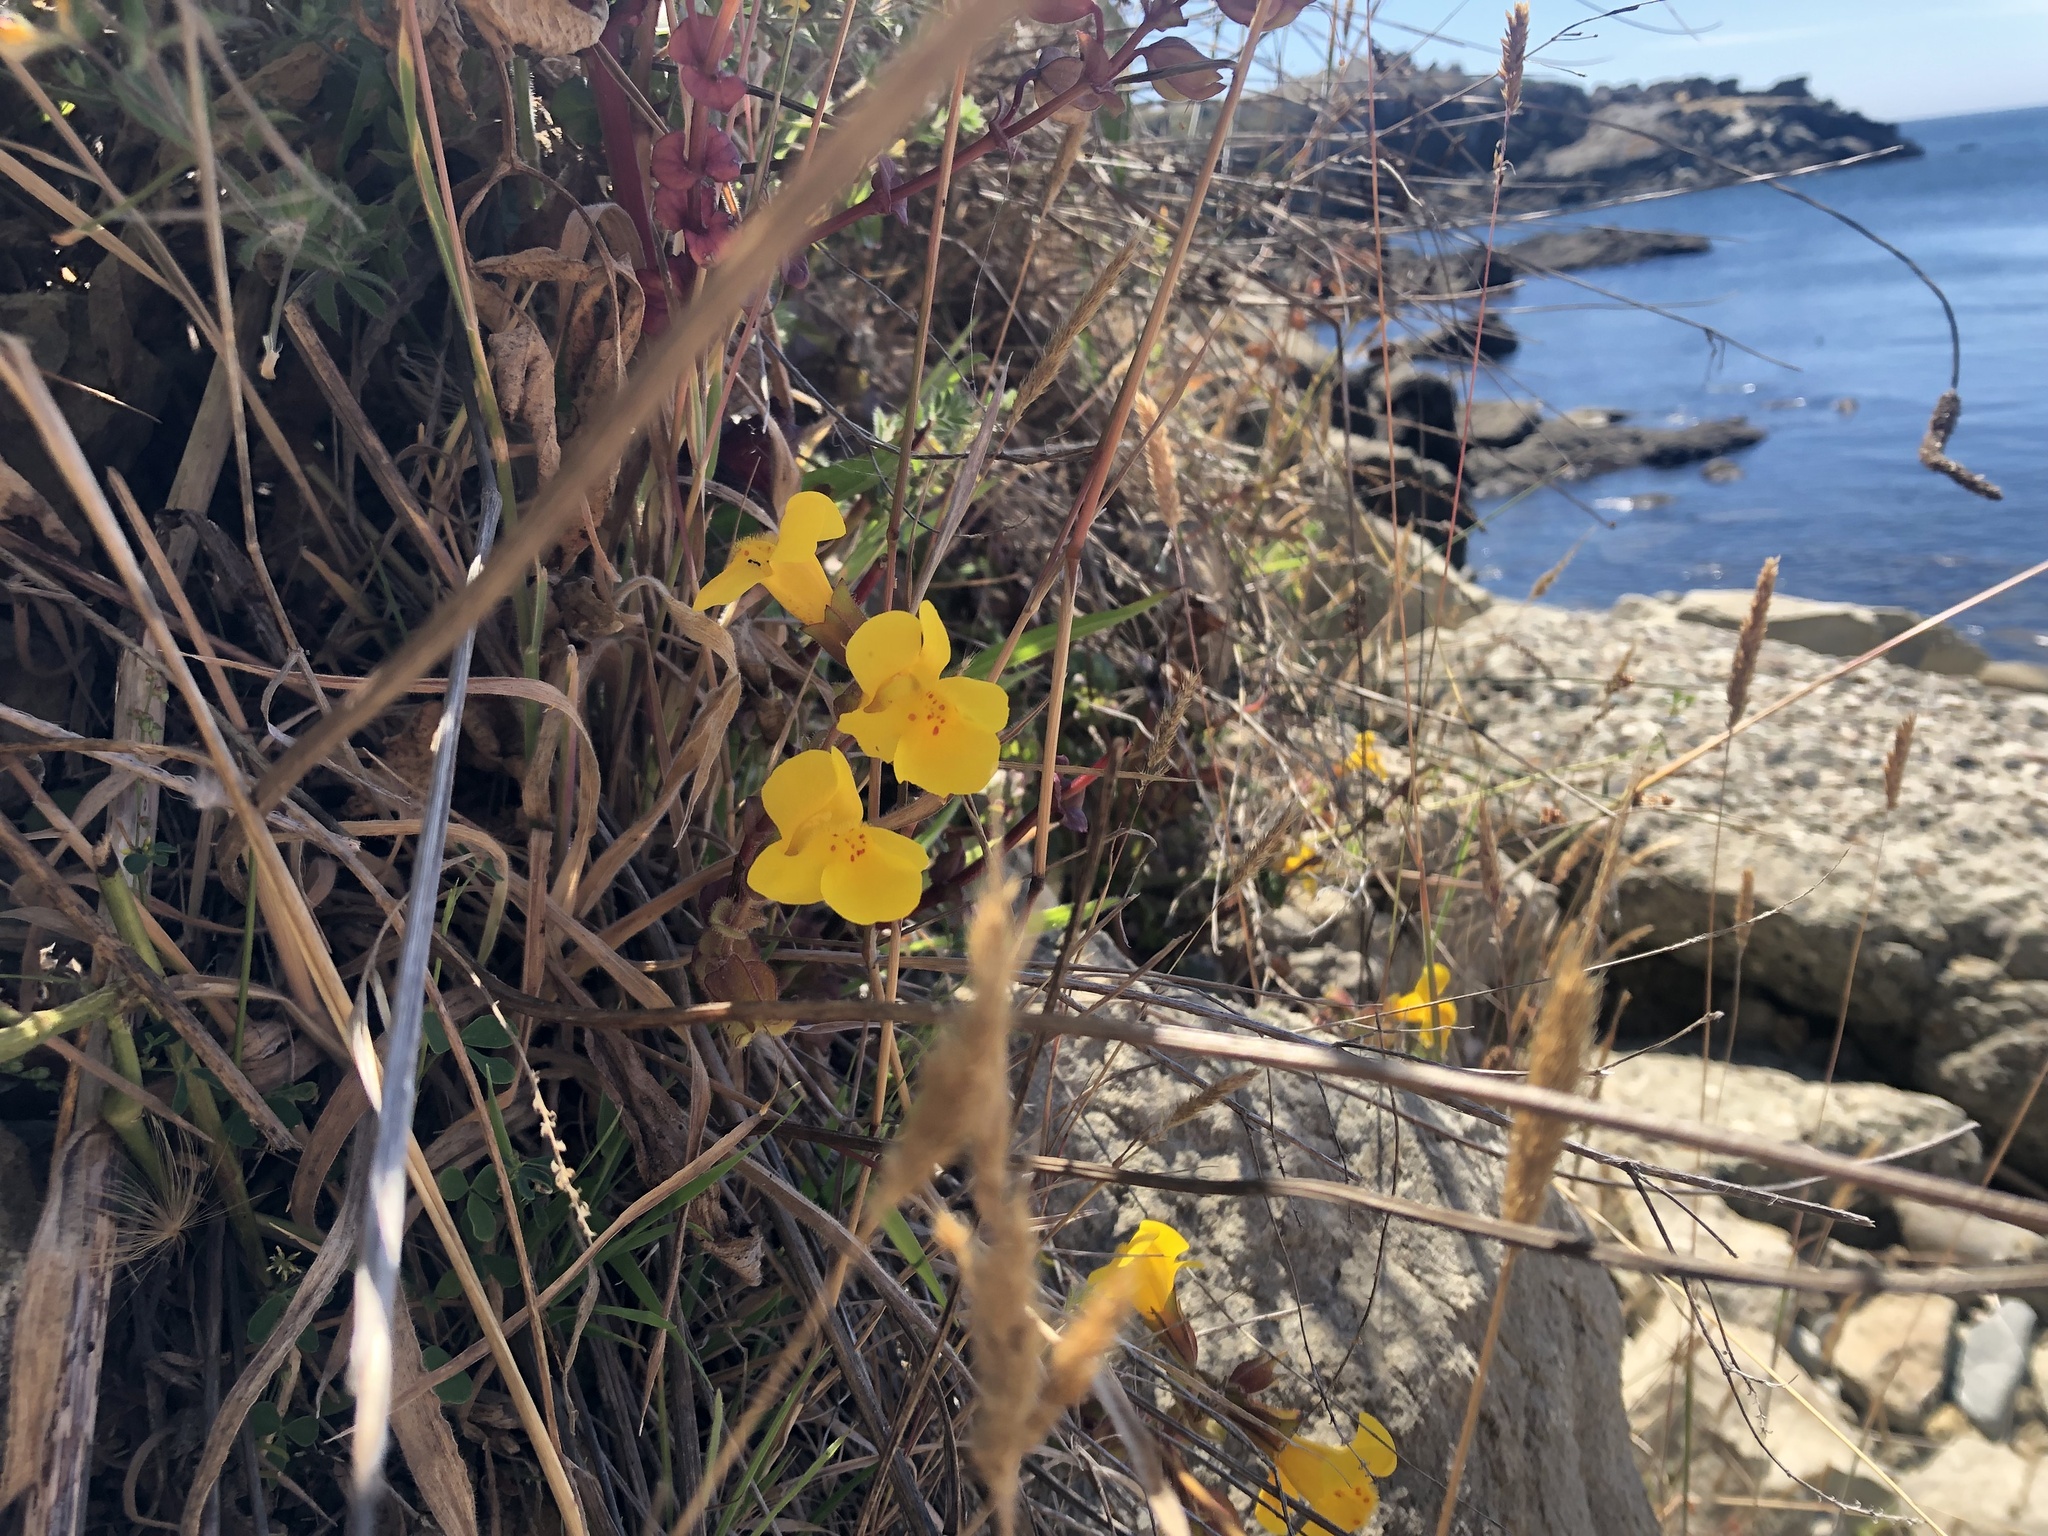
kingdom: Plantae
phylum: Tracheophyta
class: Magnoliopsida
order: Lamiales
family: Phrymaceae
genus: Erythranthe
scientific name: Erythranthe grandis
